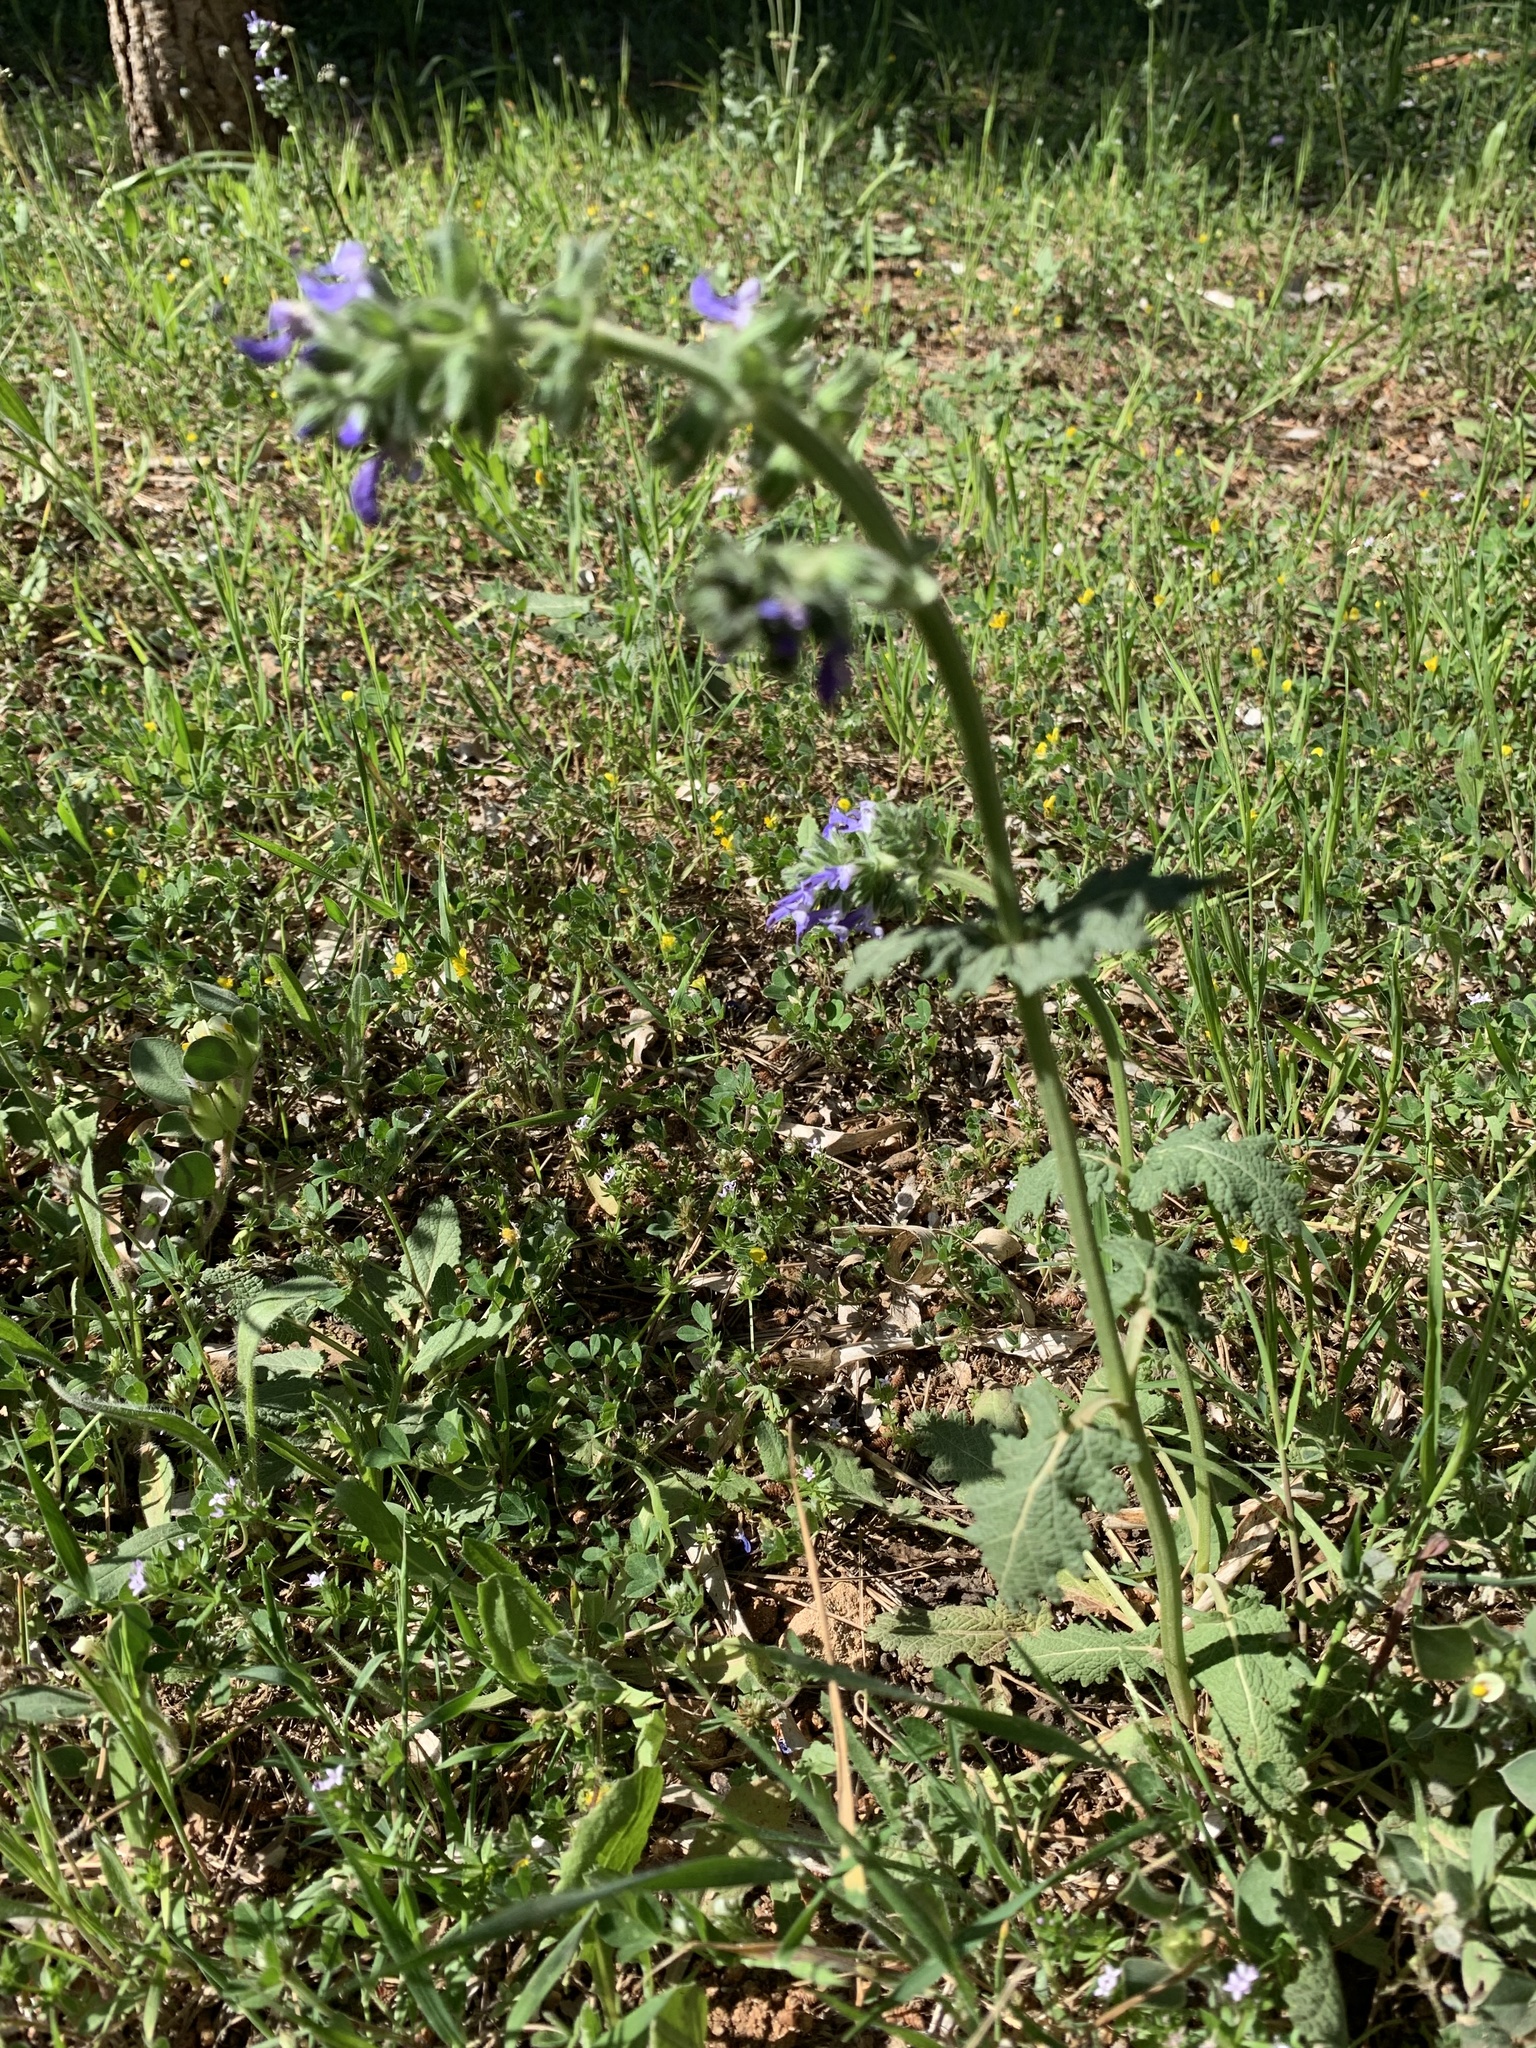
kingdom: Plantae
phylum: Tracheophyta
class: Magnoliopsida
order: Lamiales
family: Lamiaceae
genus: Salvia
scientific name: Salvia verbenaca
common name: Wild clary
